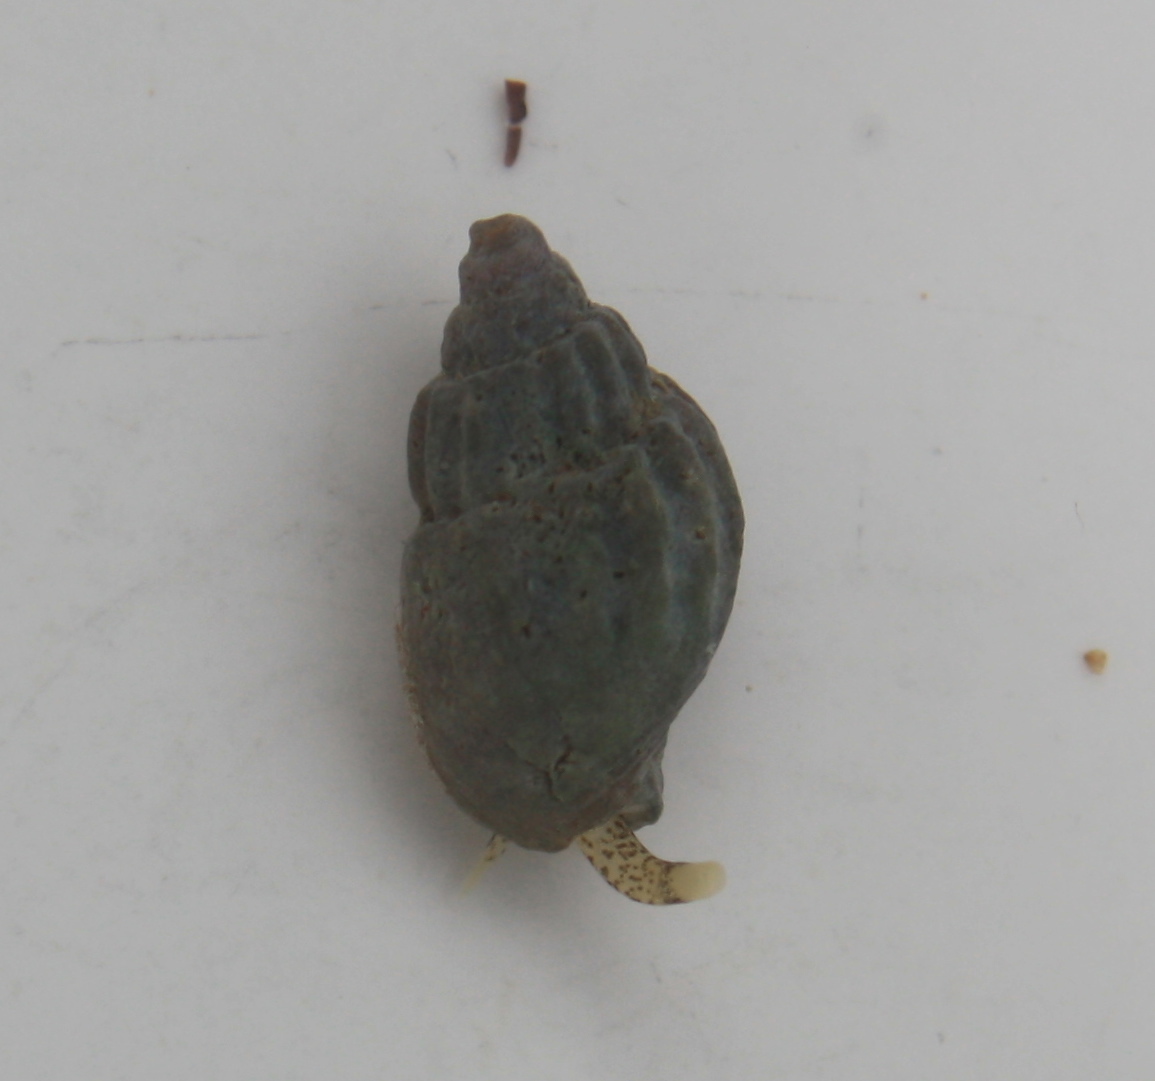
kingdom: Animalia
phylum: Mollusca
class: Gastropoda
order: Neogastropoda
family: Columbellidae
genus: Amphissa
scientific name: Amphissa columbiana
